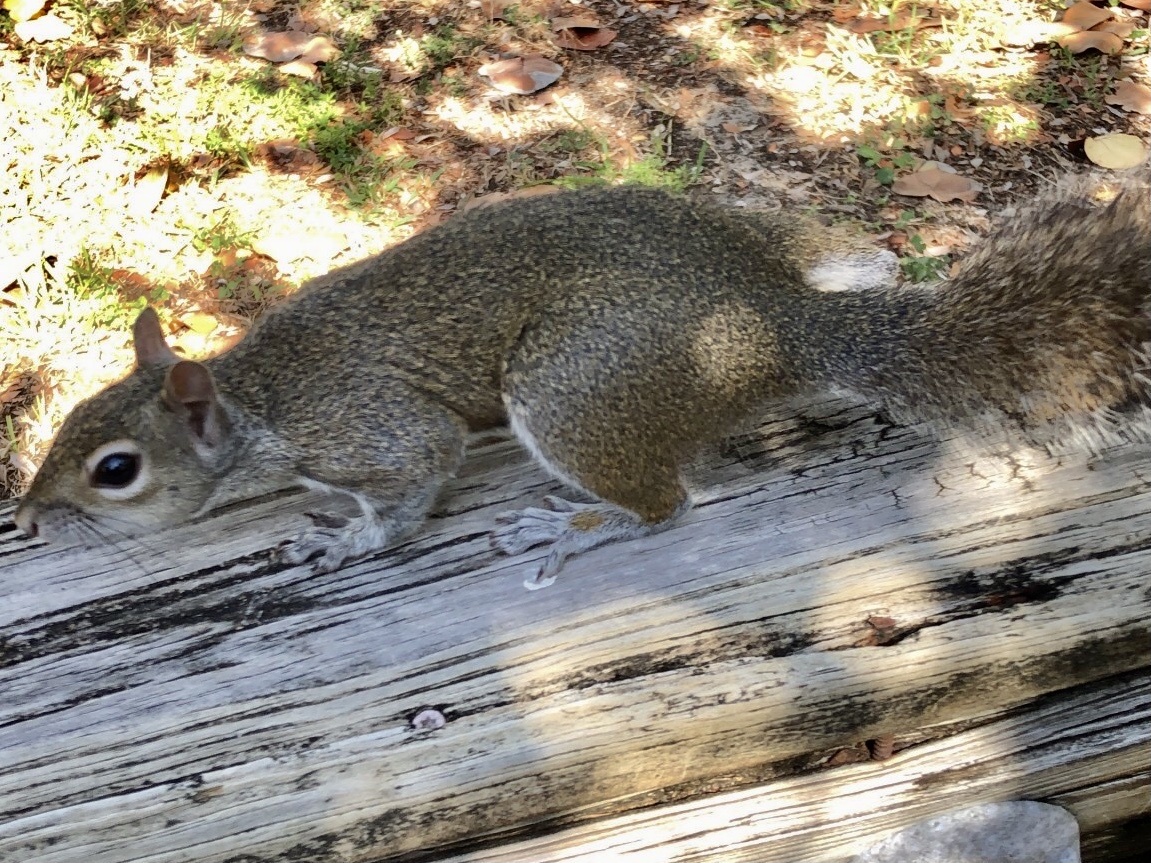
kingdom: Animalia
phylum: Chordata
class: Mammalia
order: Rodentia
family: Sciuridae
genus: Sciurus
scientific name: Sciurus carolinensis
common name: Eastern gray squirrel
